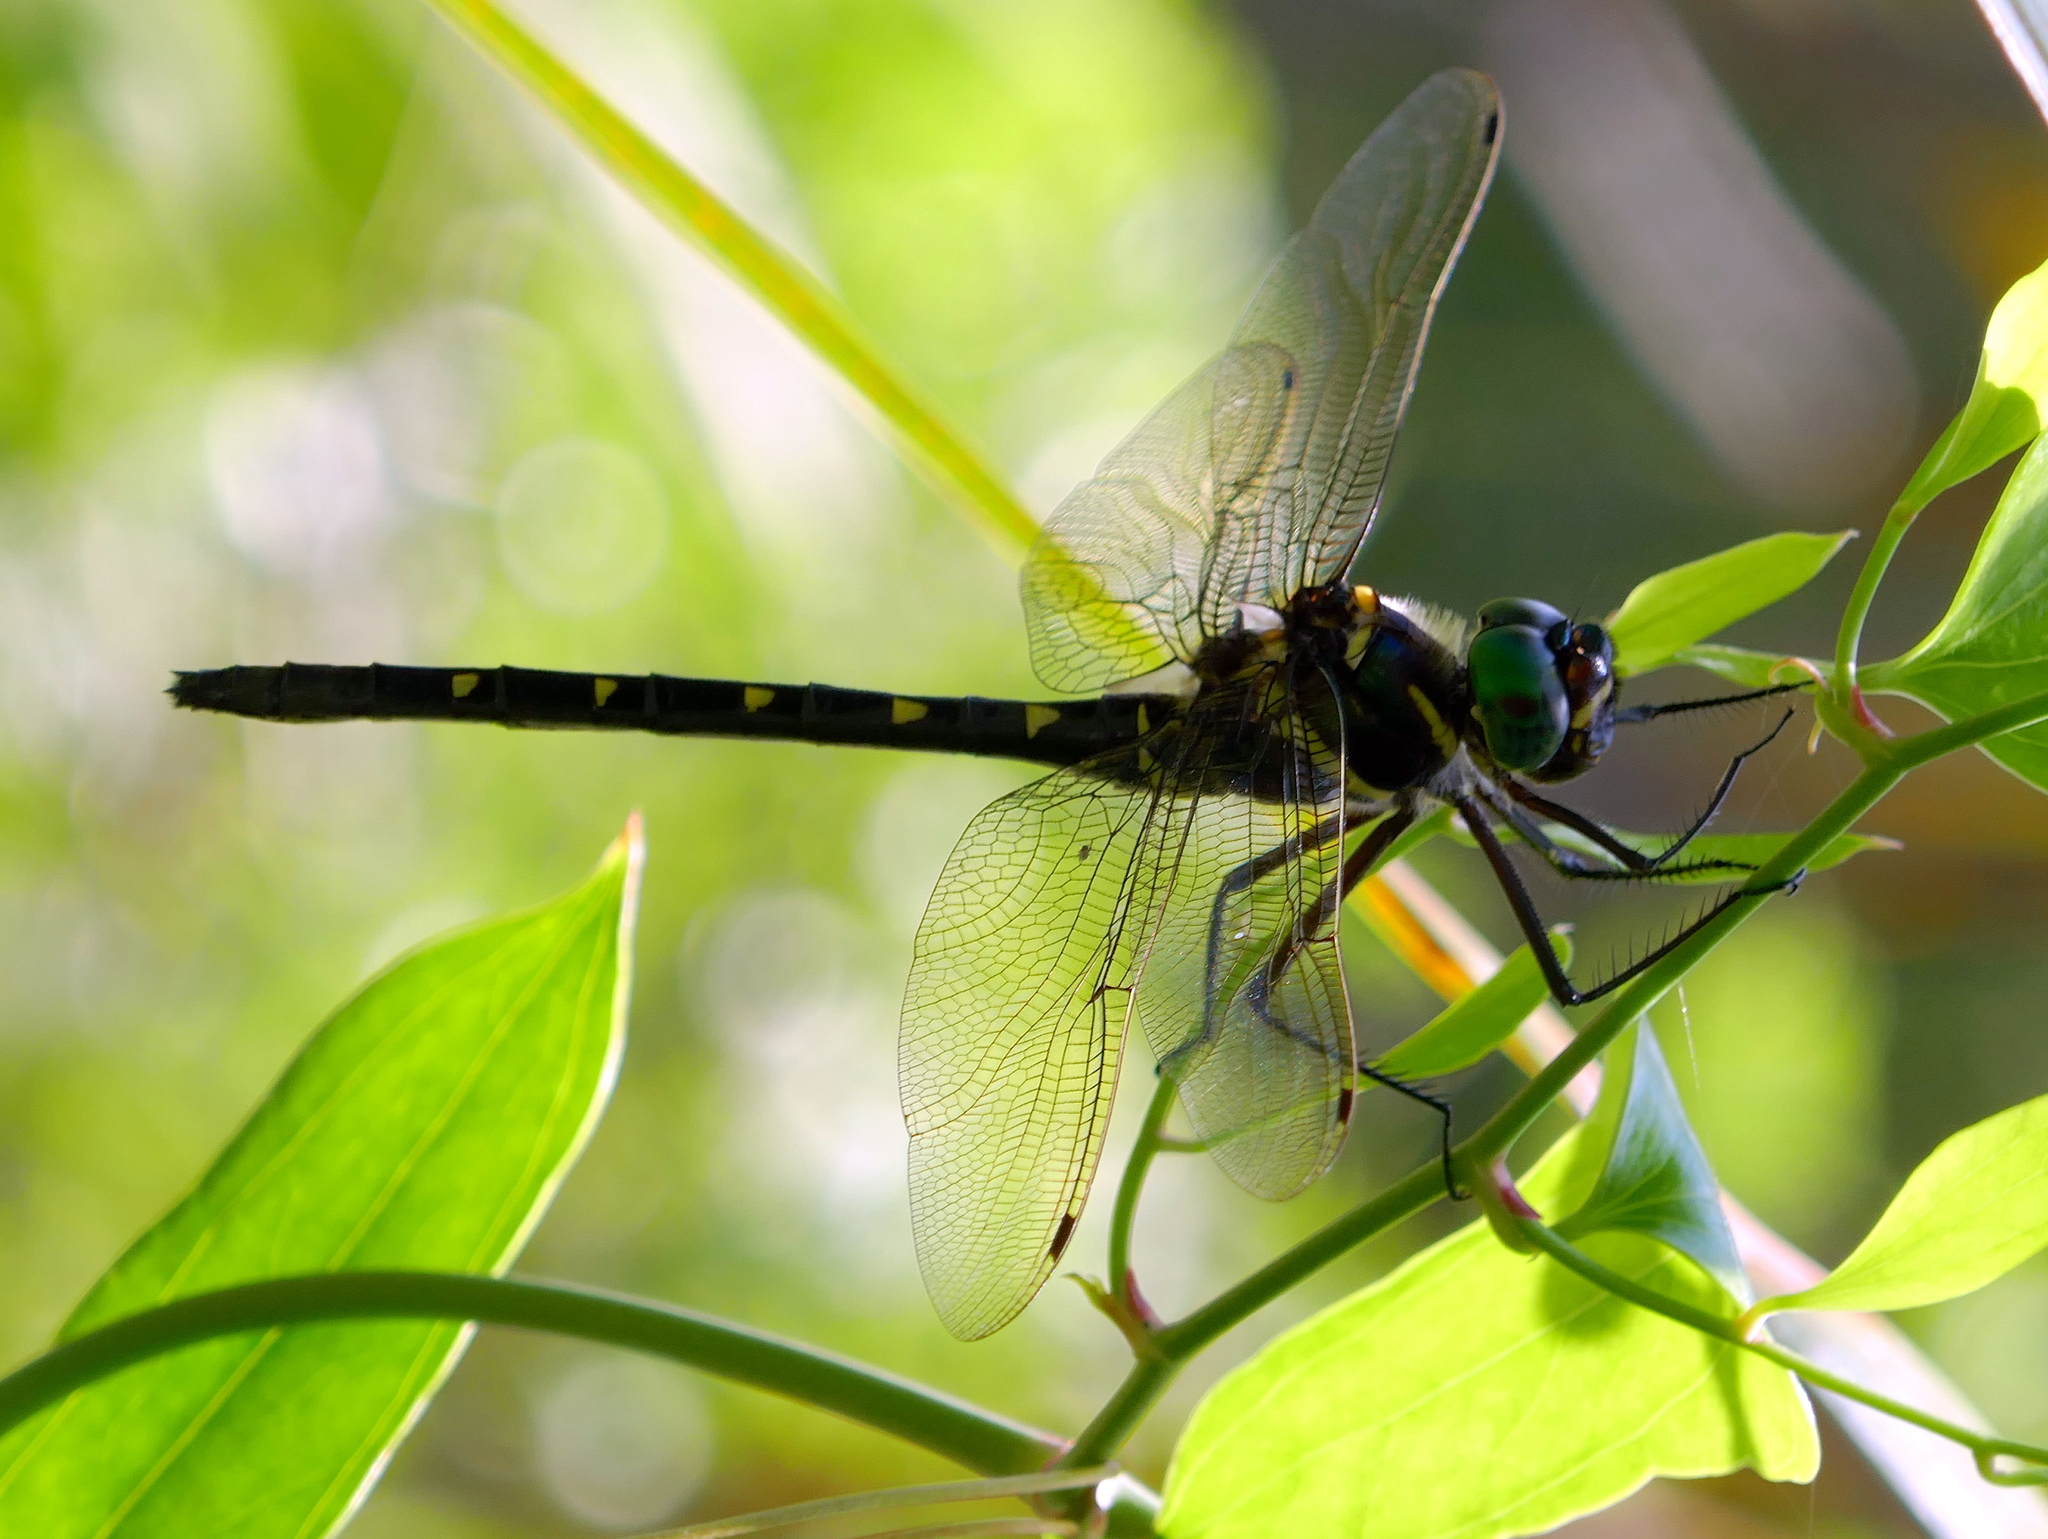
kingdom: Animalia
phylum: Arthropoda
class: Insecta
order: Odonata
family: Macromiidae
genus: Macromia
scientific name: Macromia taeniolata
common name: Royal river cruiser
